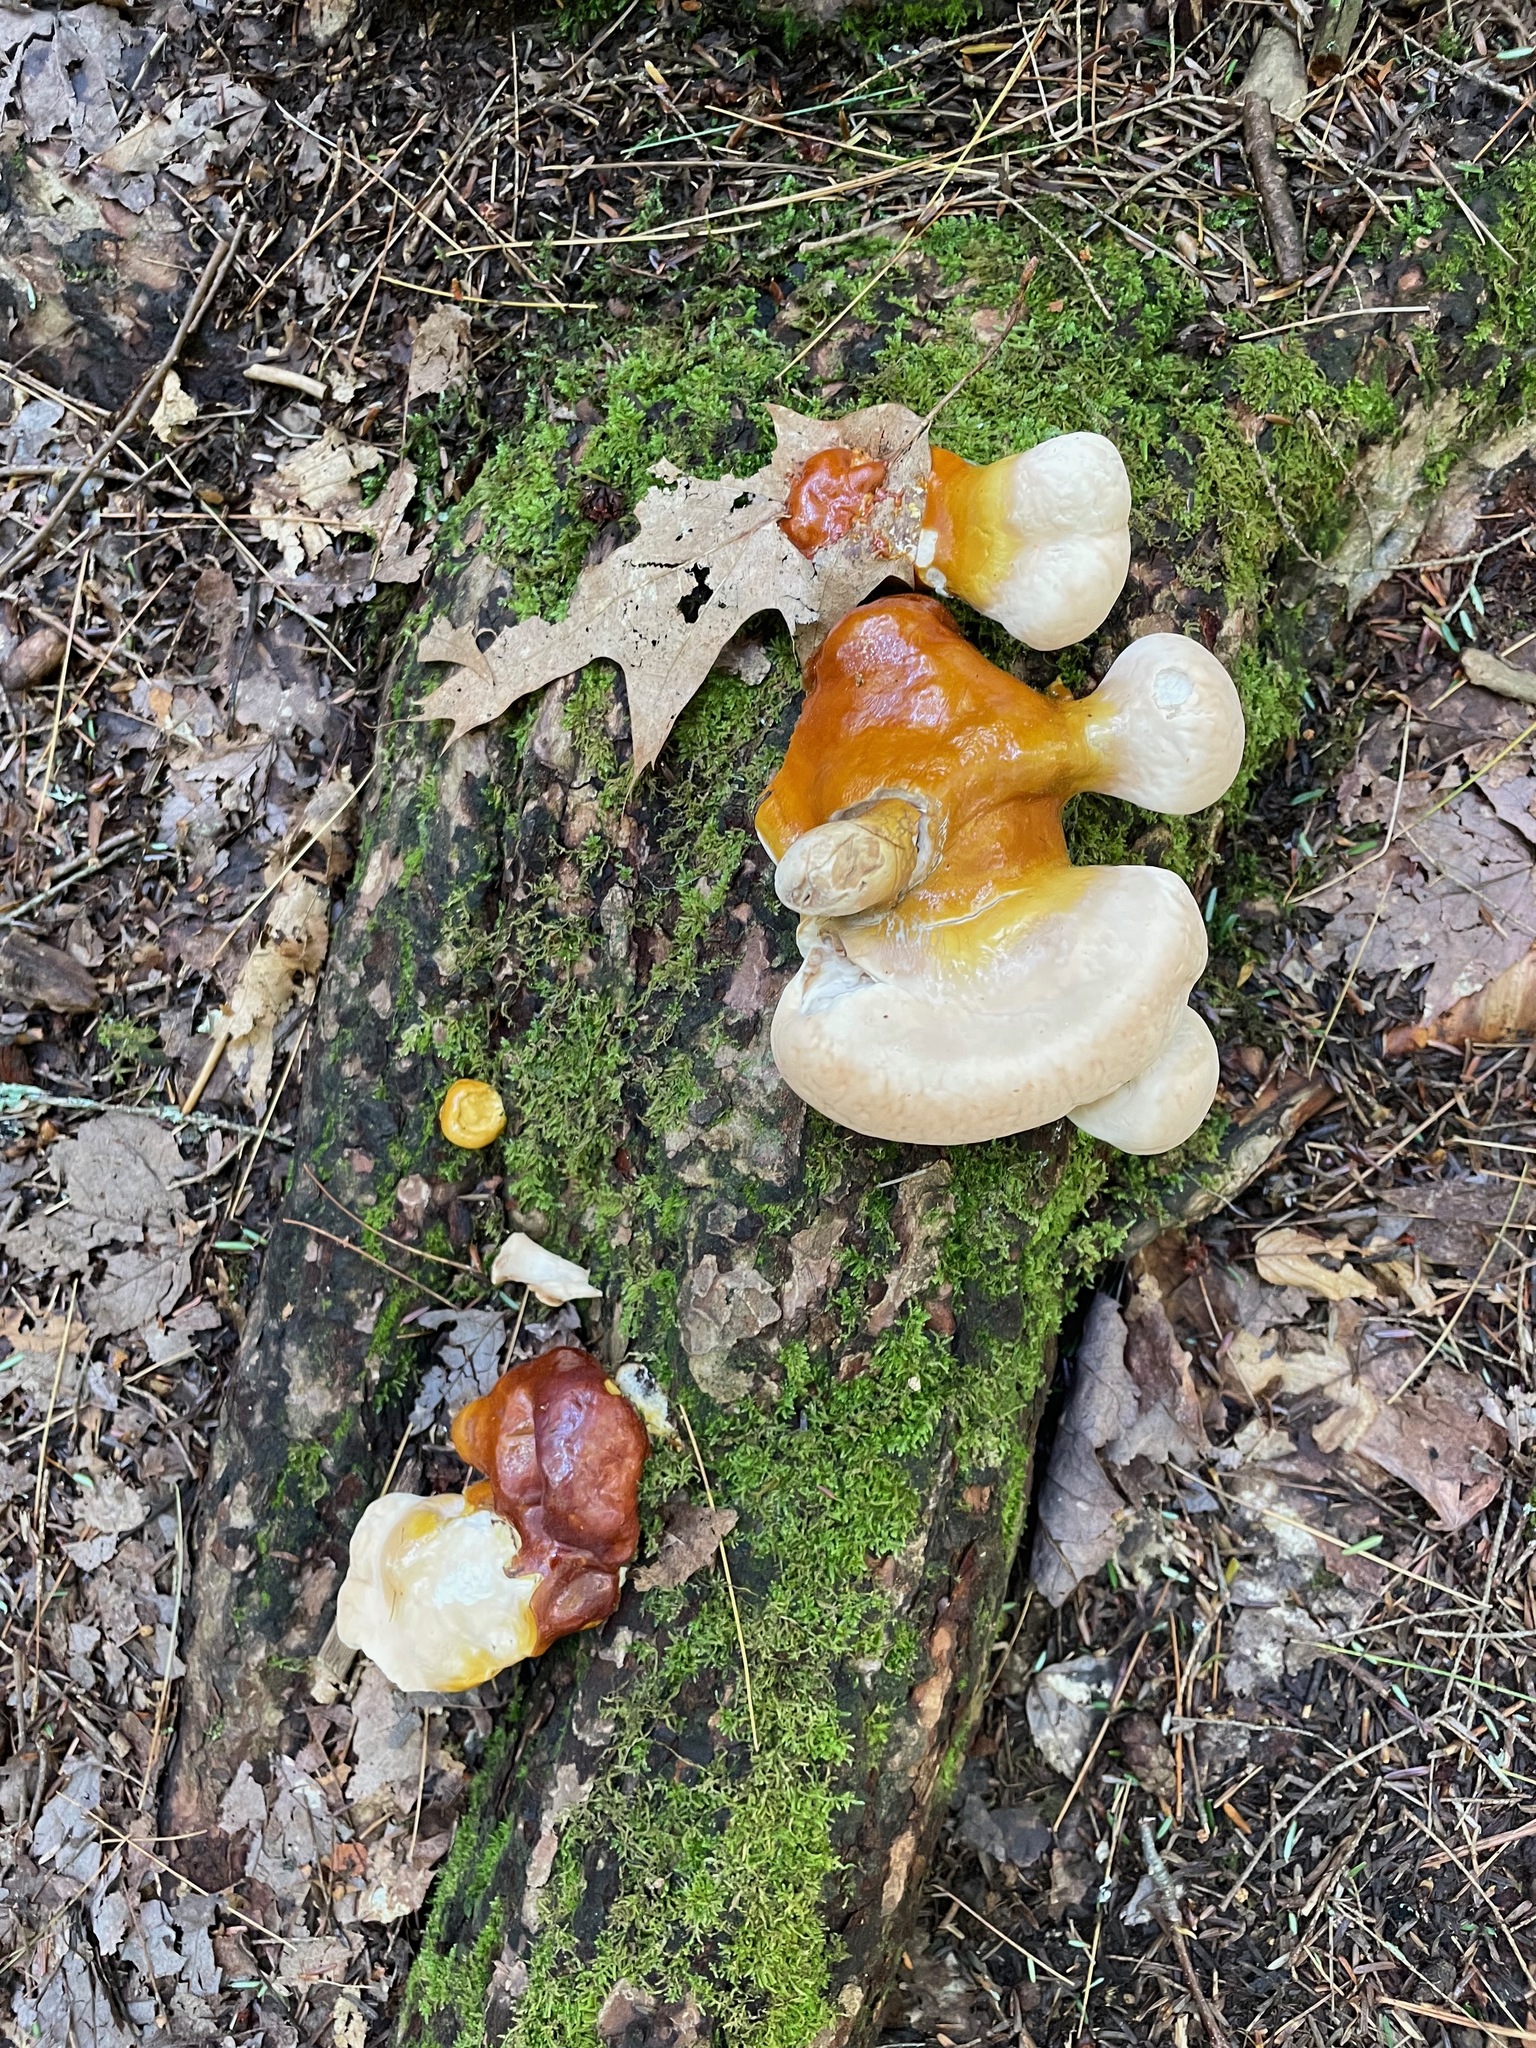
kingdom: Fungi
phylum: Basidiomycota
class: Agaricomycetes
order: Polyporales
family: Polyporaceae
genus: Ganoderma
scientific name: Ganoderma tsugae
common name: Hemlock varnish shelf
